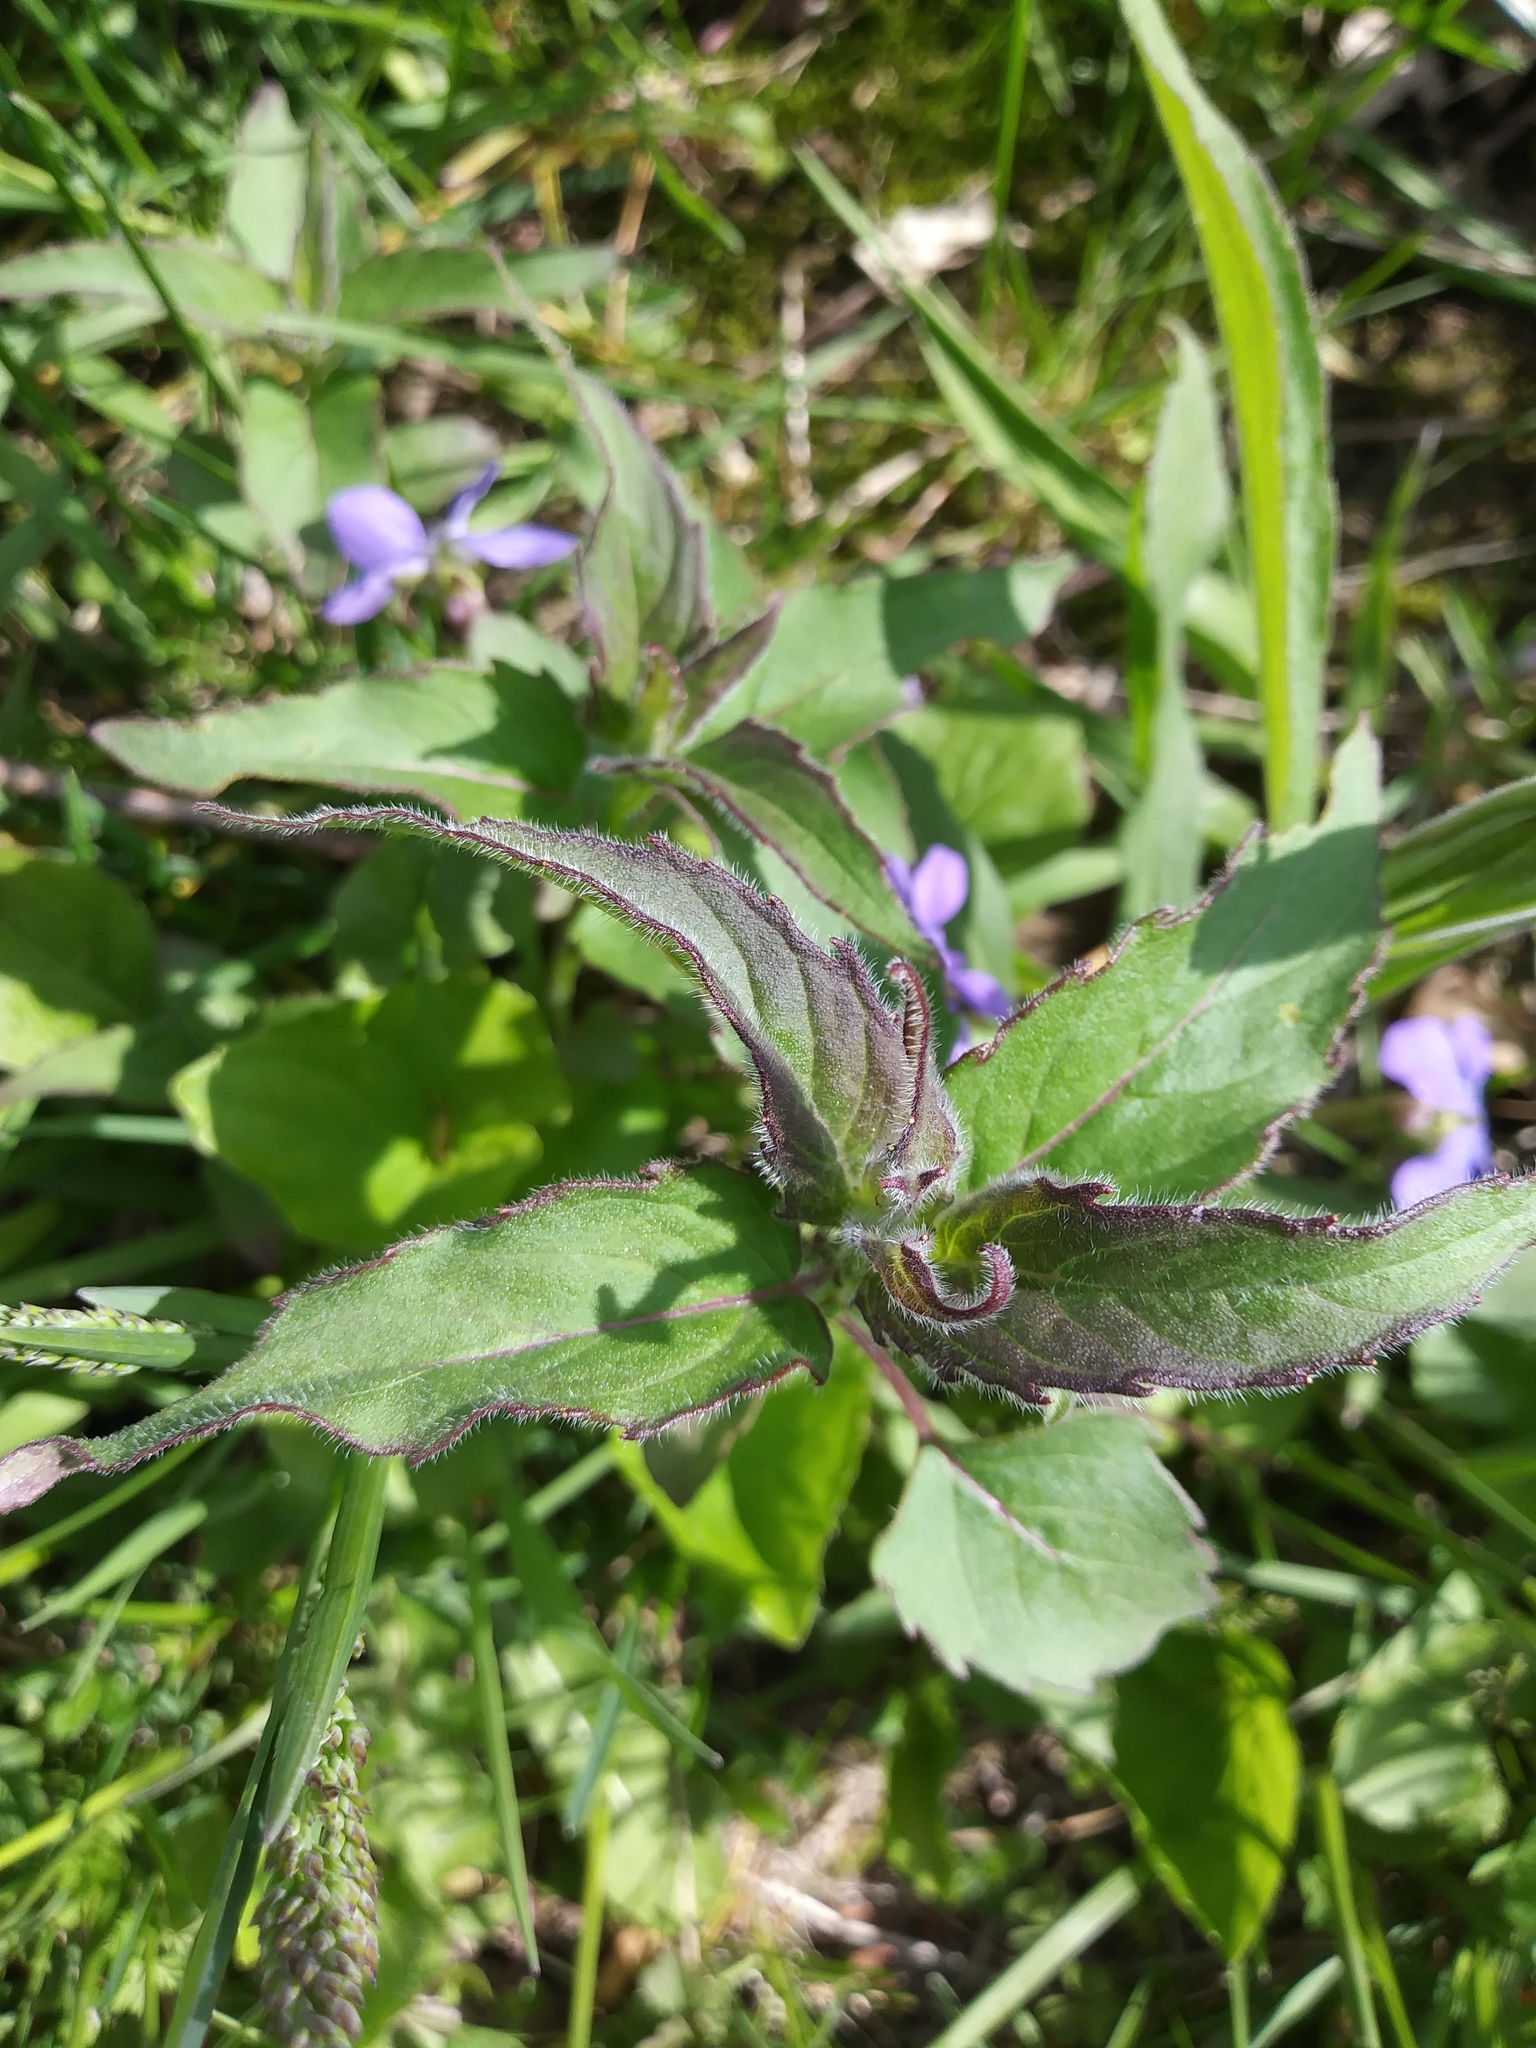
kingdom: Plantae
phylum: Tracheophyta
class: Magnoliopsida
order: Lamiales
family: Lamiaceae
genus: Monarda
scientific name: Monarda fistulosa
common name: Purple beebalm
